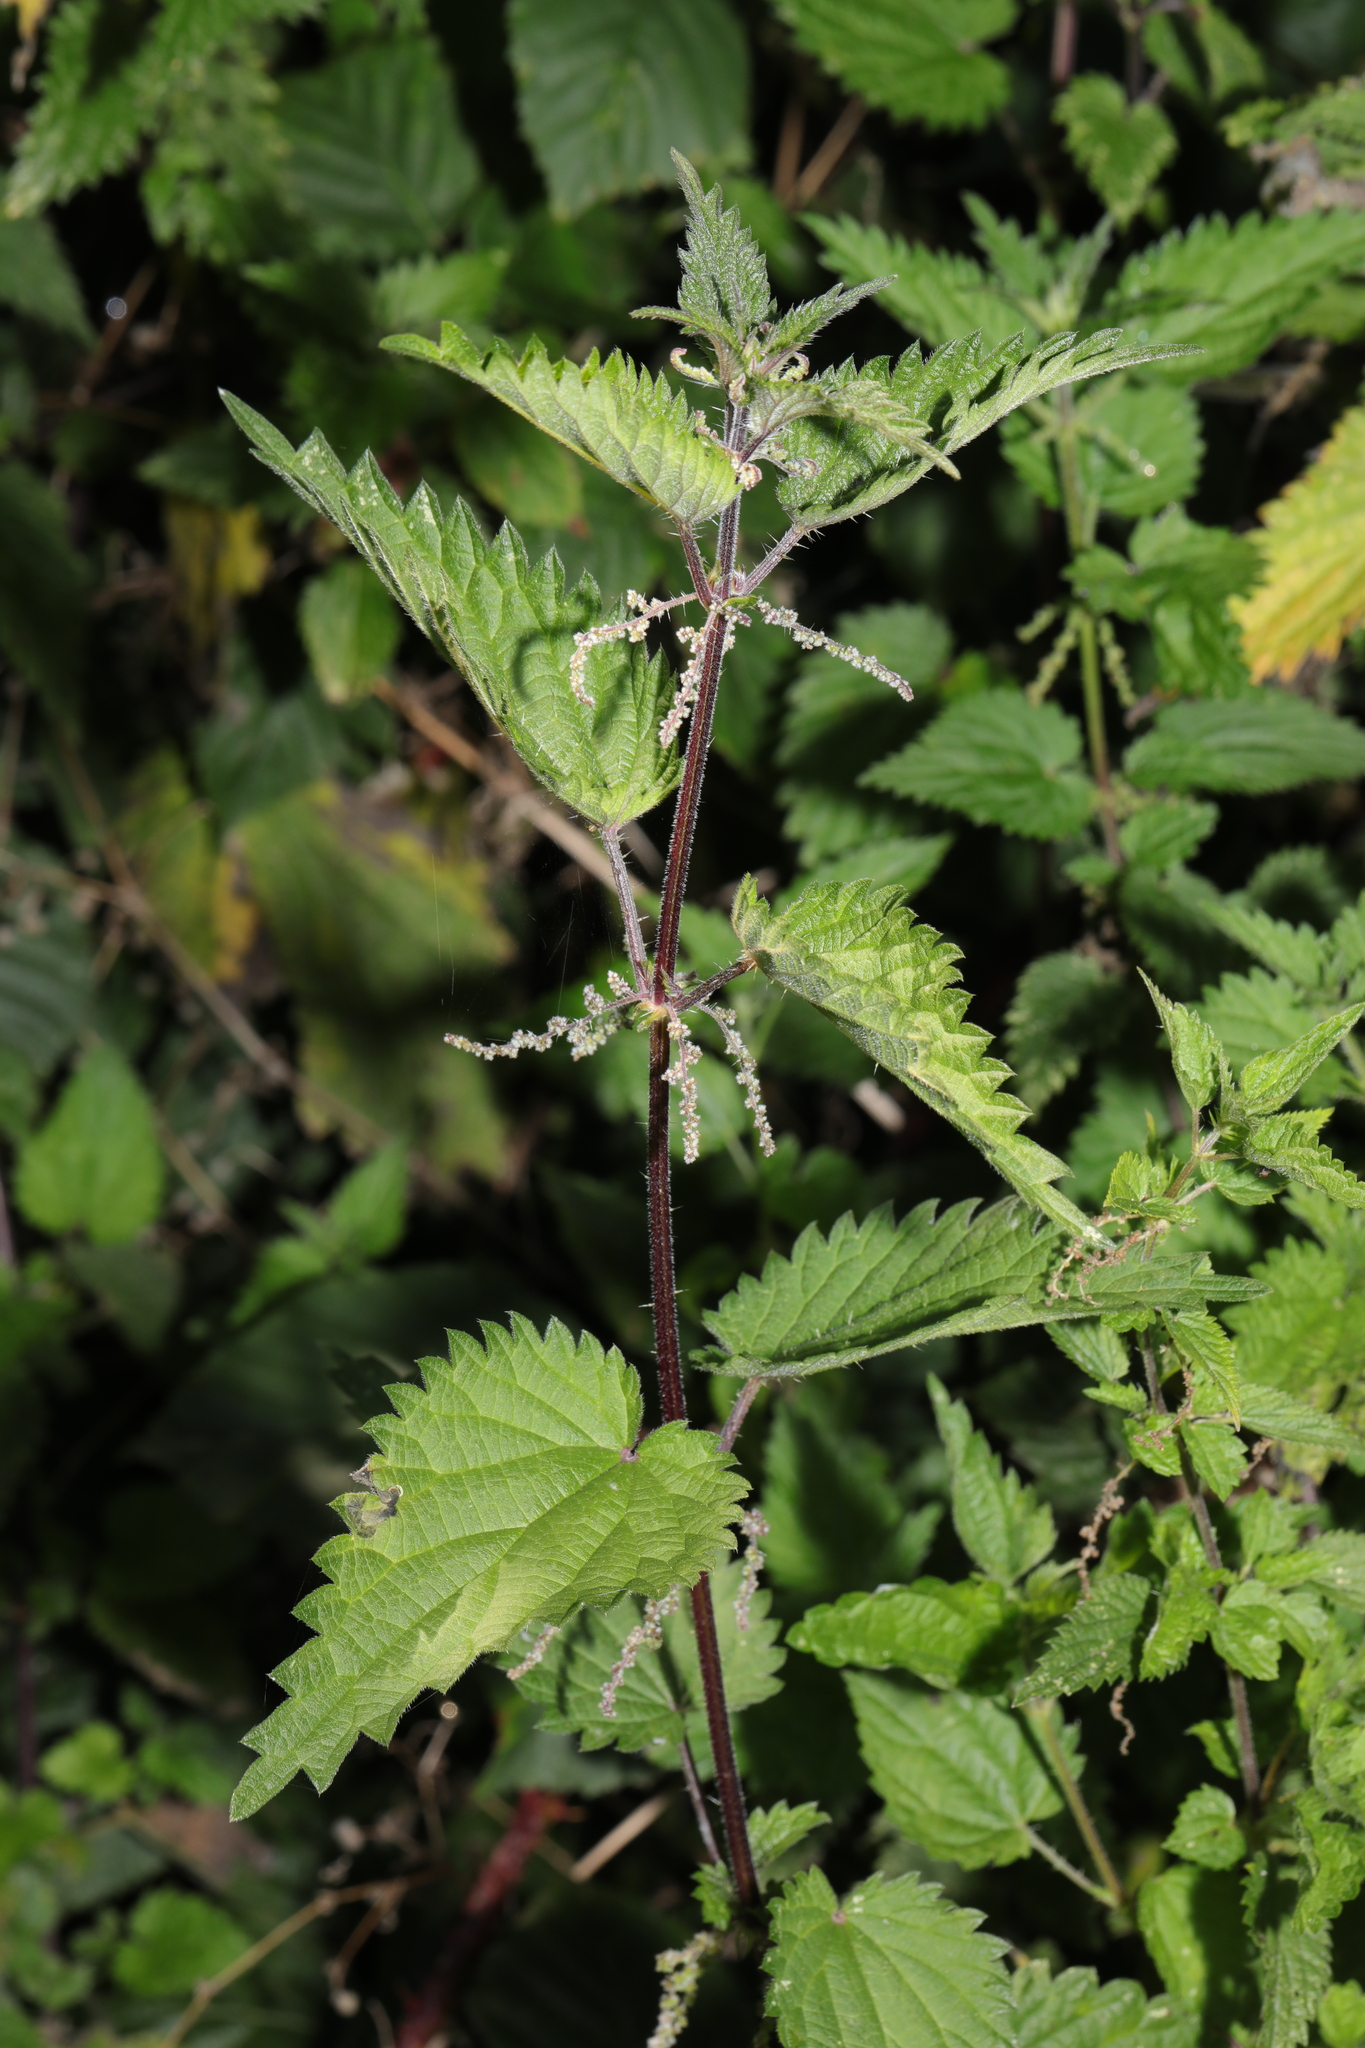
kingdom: Plantae
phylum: Tracheophyta
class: Magnoliopsida
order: Rosales
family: Urticaceae
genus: Urtica
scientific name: Urtica dioica
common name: Common nettle
